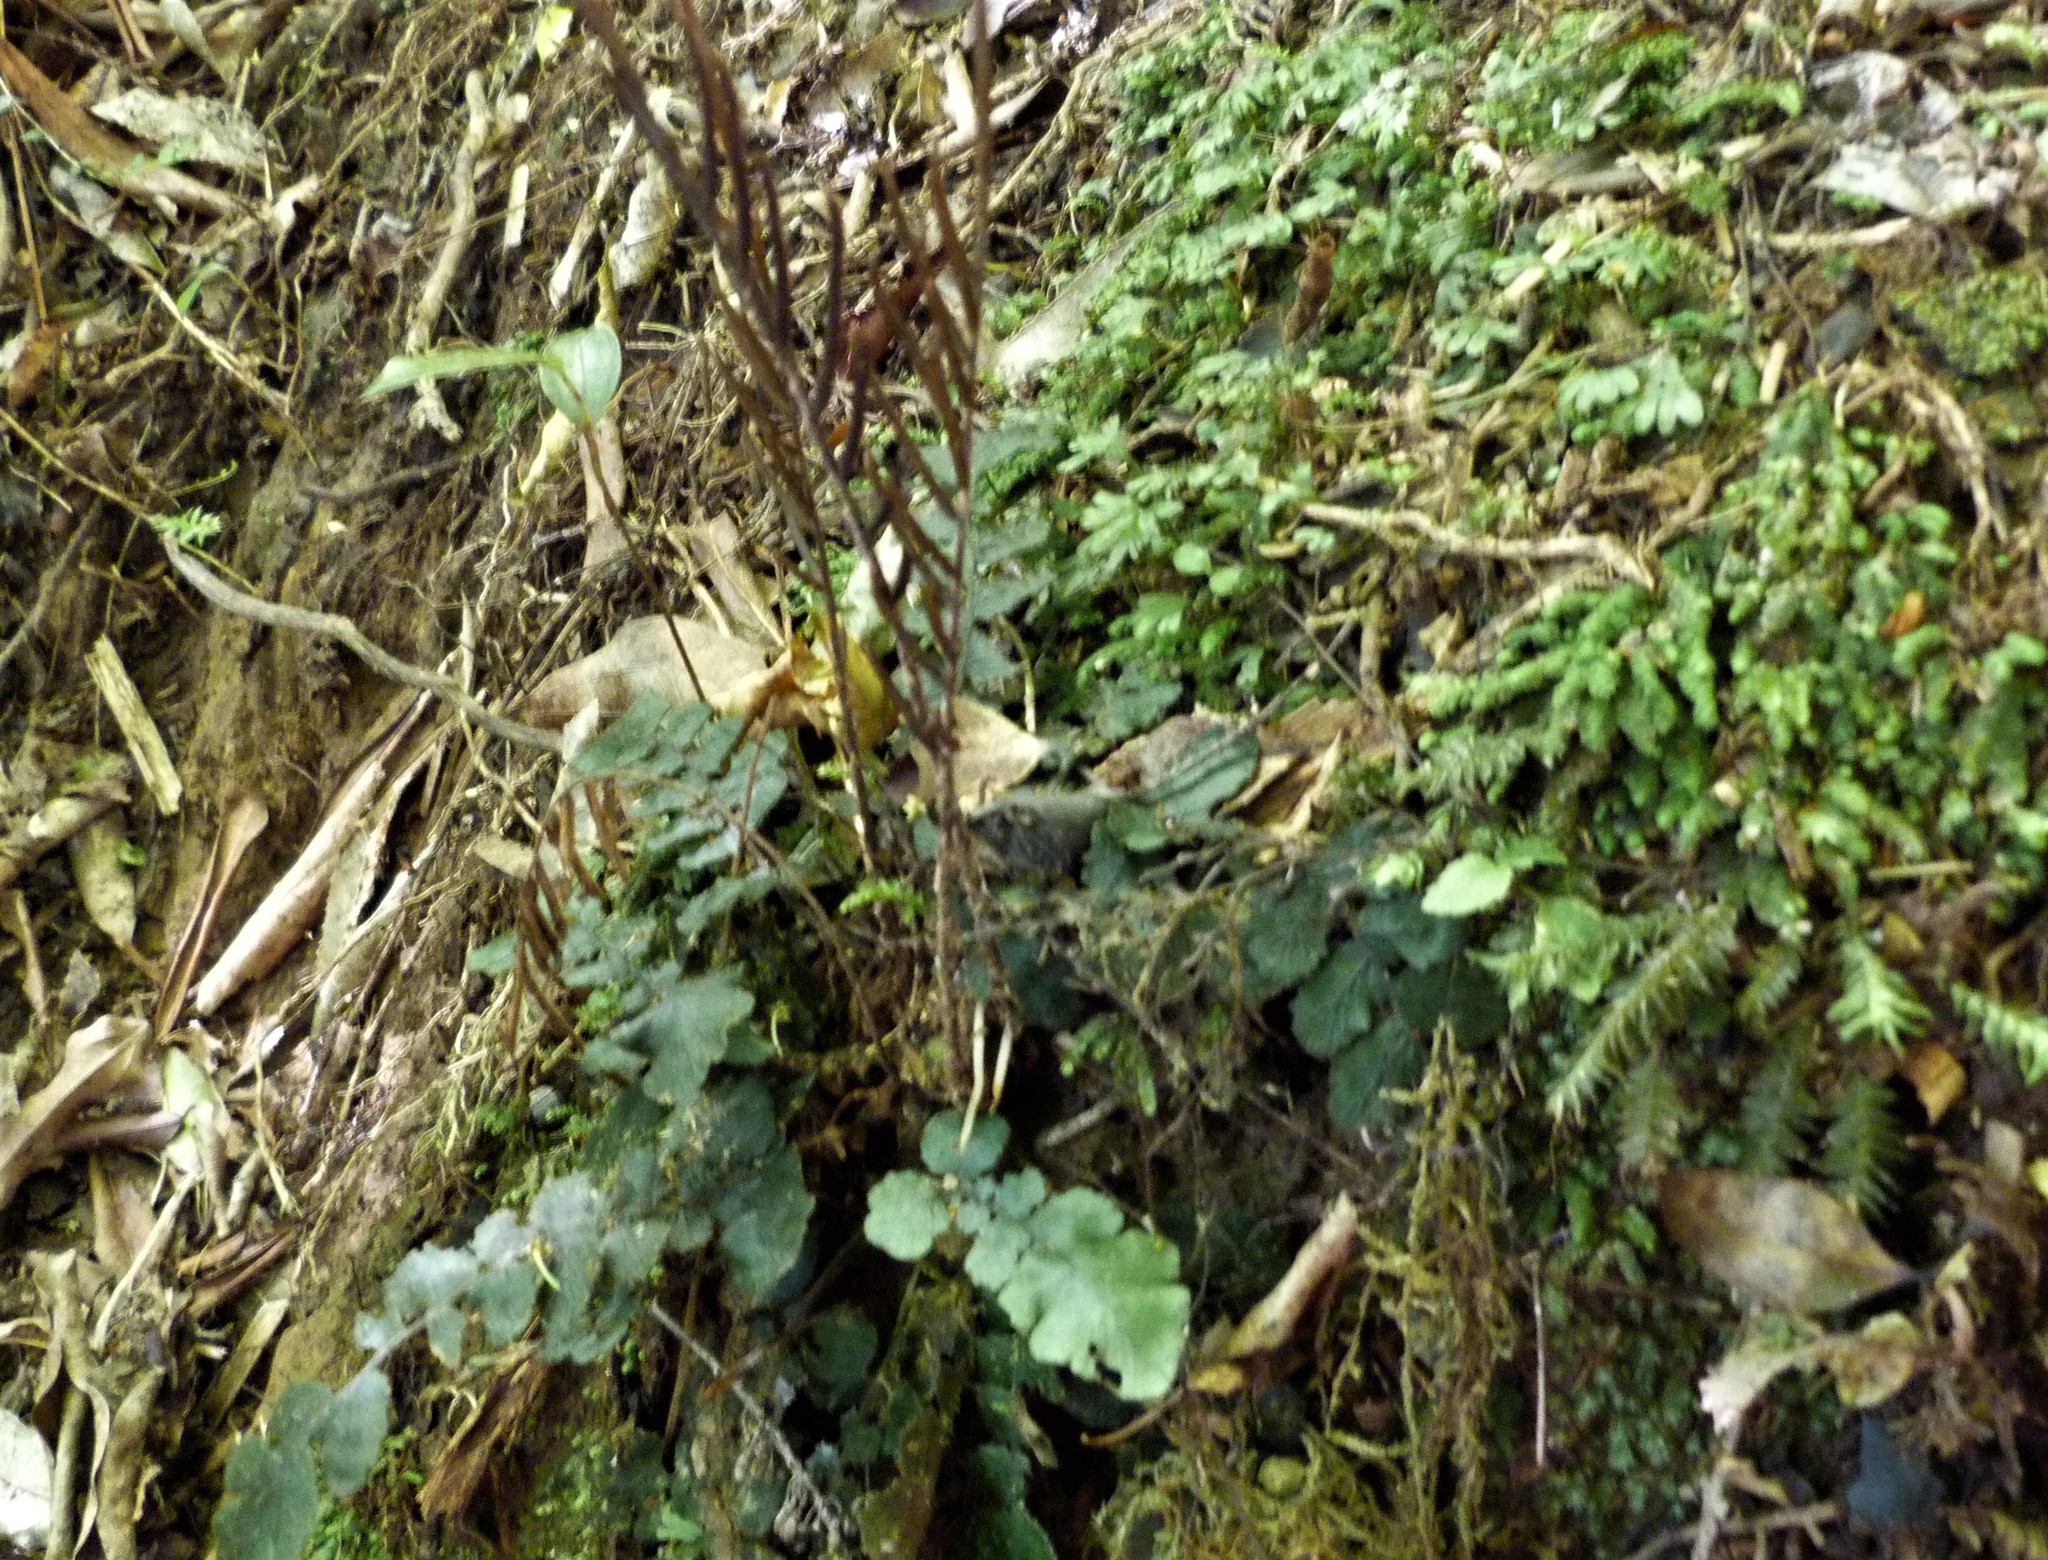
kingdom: Plantae
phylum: Tracheophyta
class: Polypodiopsida
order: Polypodiales
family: Blechnaceae
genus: Cranfillia
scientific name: Cranfillia nigra
